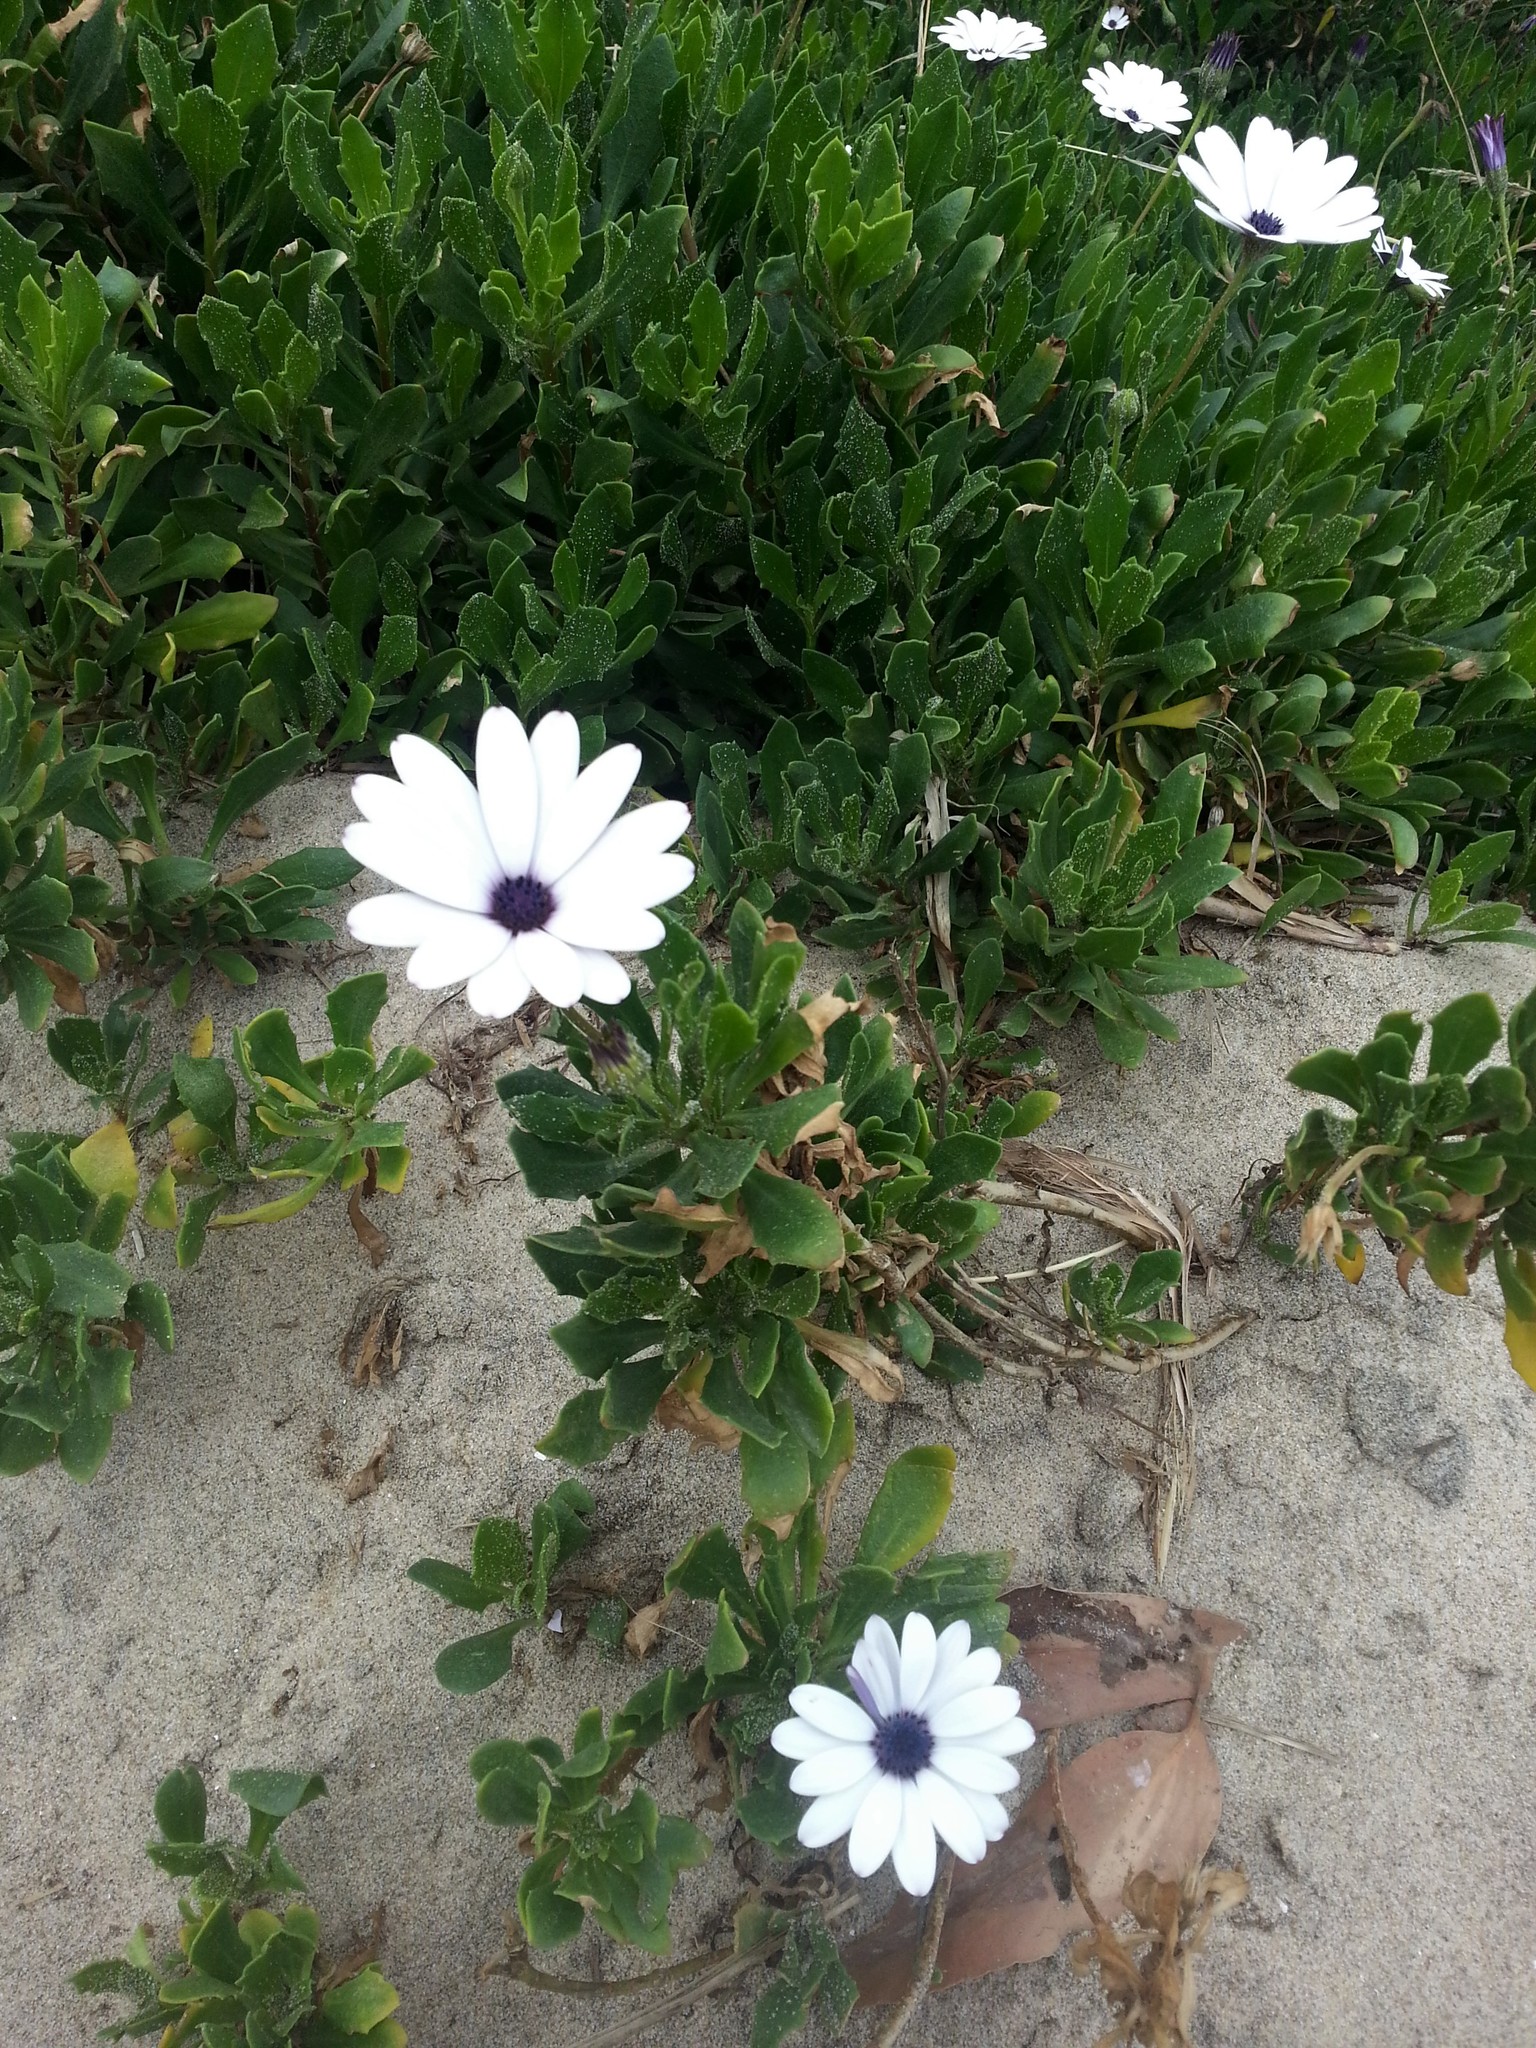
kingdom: Plantae
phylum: Tracheophyta
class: Magnoliopsida
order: Asterales
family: Asteraceae
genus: Dimorphotheca
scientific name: Dimorphotheca fruticosa
